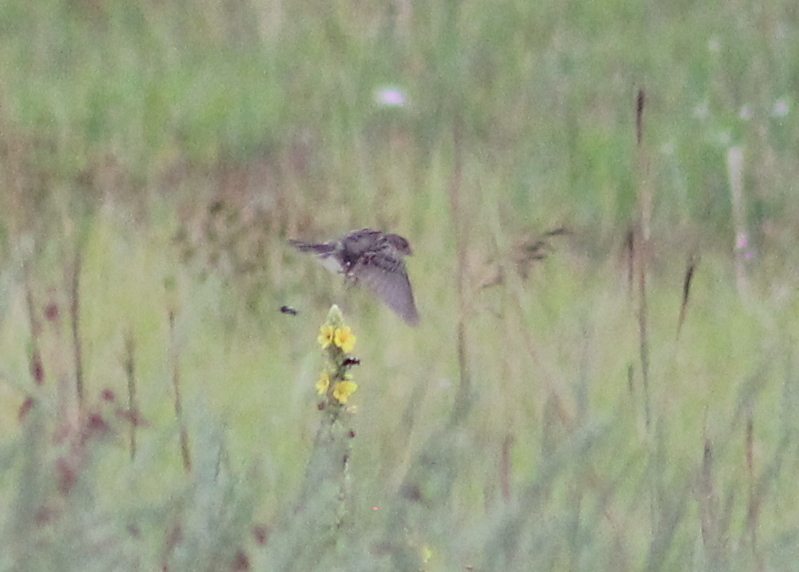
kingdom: Animalia
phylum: Chordata
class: Aves
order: Passeriformes
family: Passerellidae
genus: Ammodramus
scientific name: Ammodramus savannarum
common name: Grasshopper sparrow
